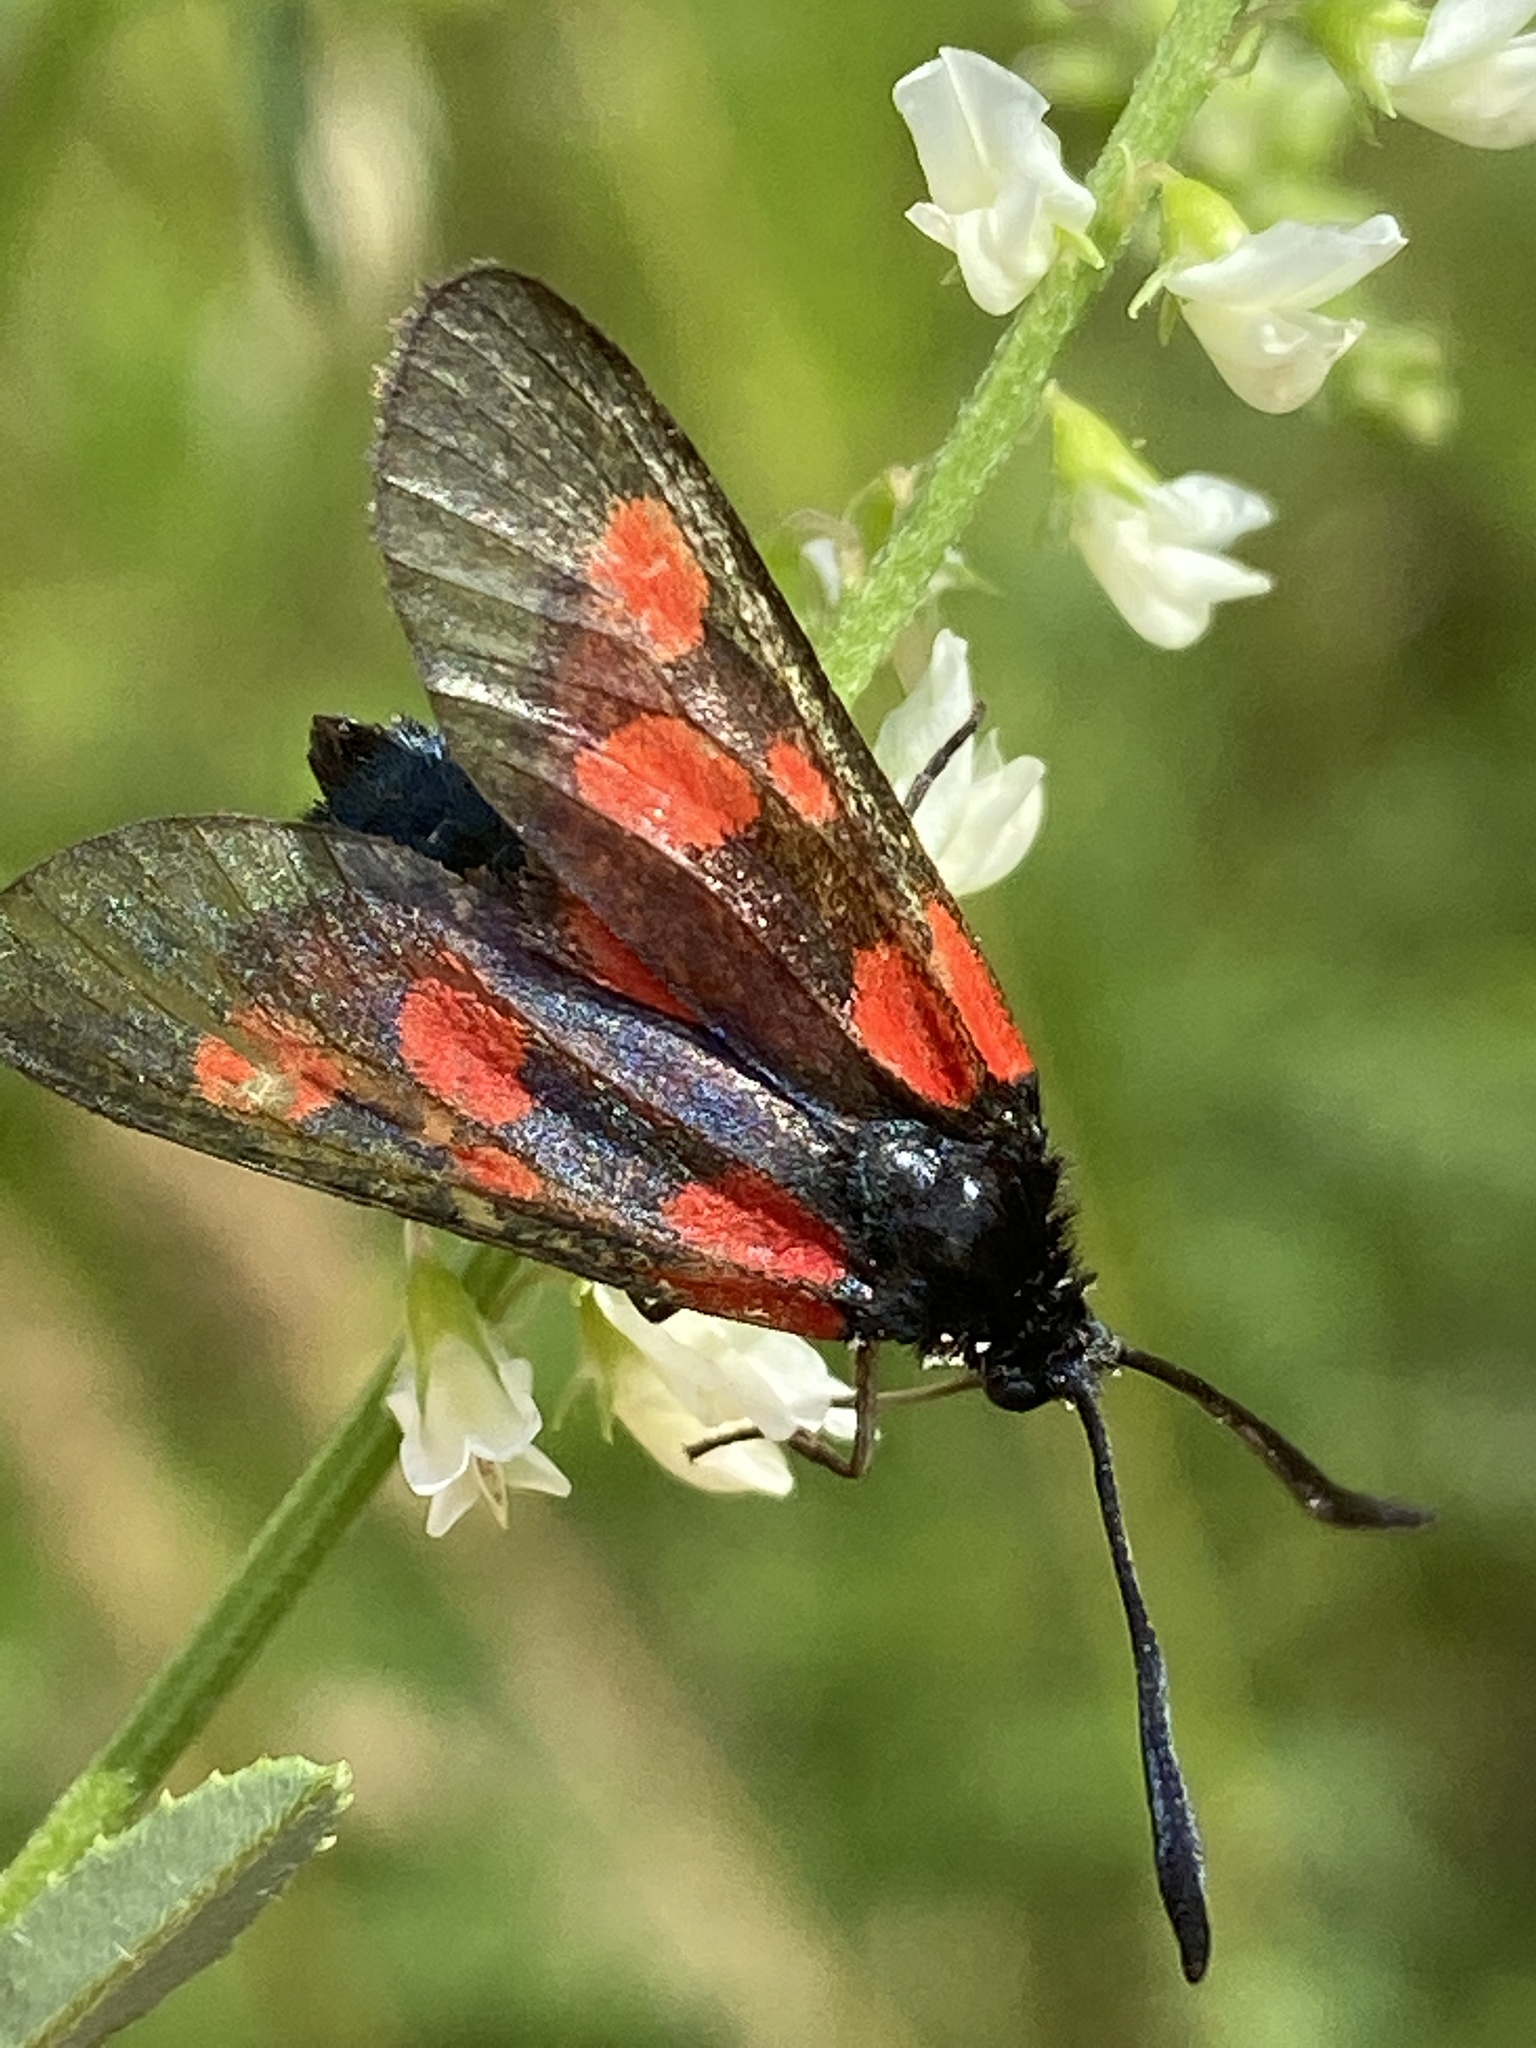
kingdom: Animalia
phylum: Arthropoda
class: Insecta
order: Lepidoptera
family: Zygaenidae
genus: Zygaena
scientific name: Zygaena viciae
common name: New forest burnet
